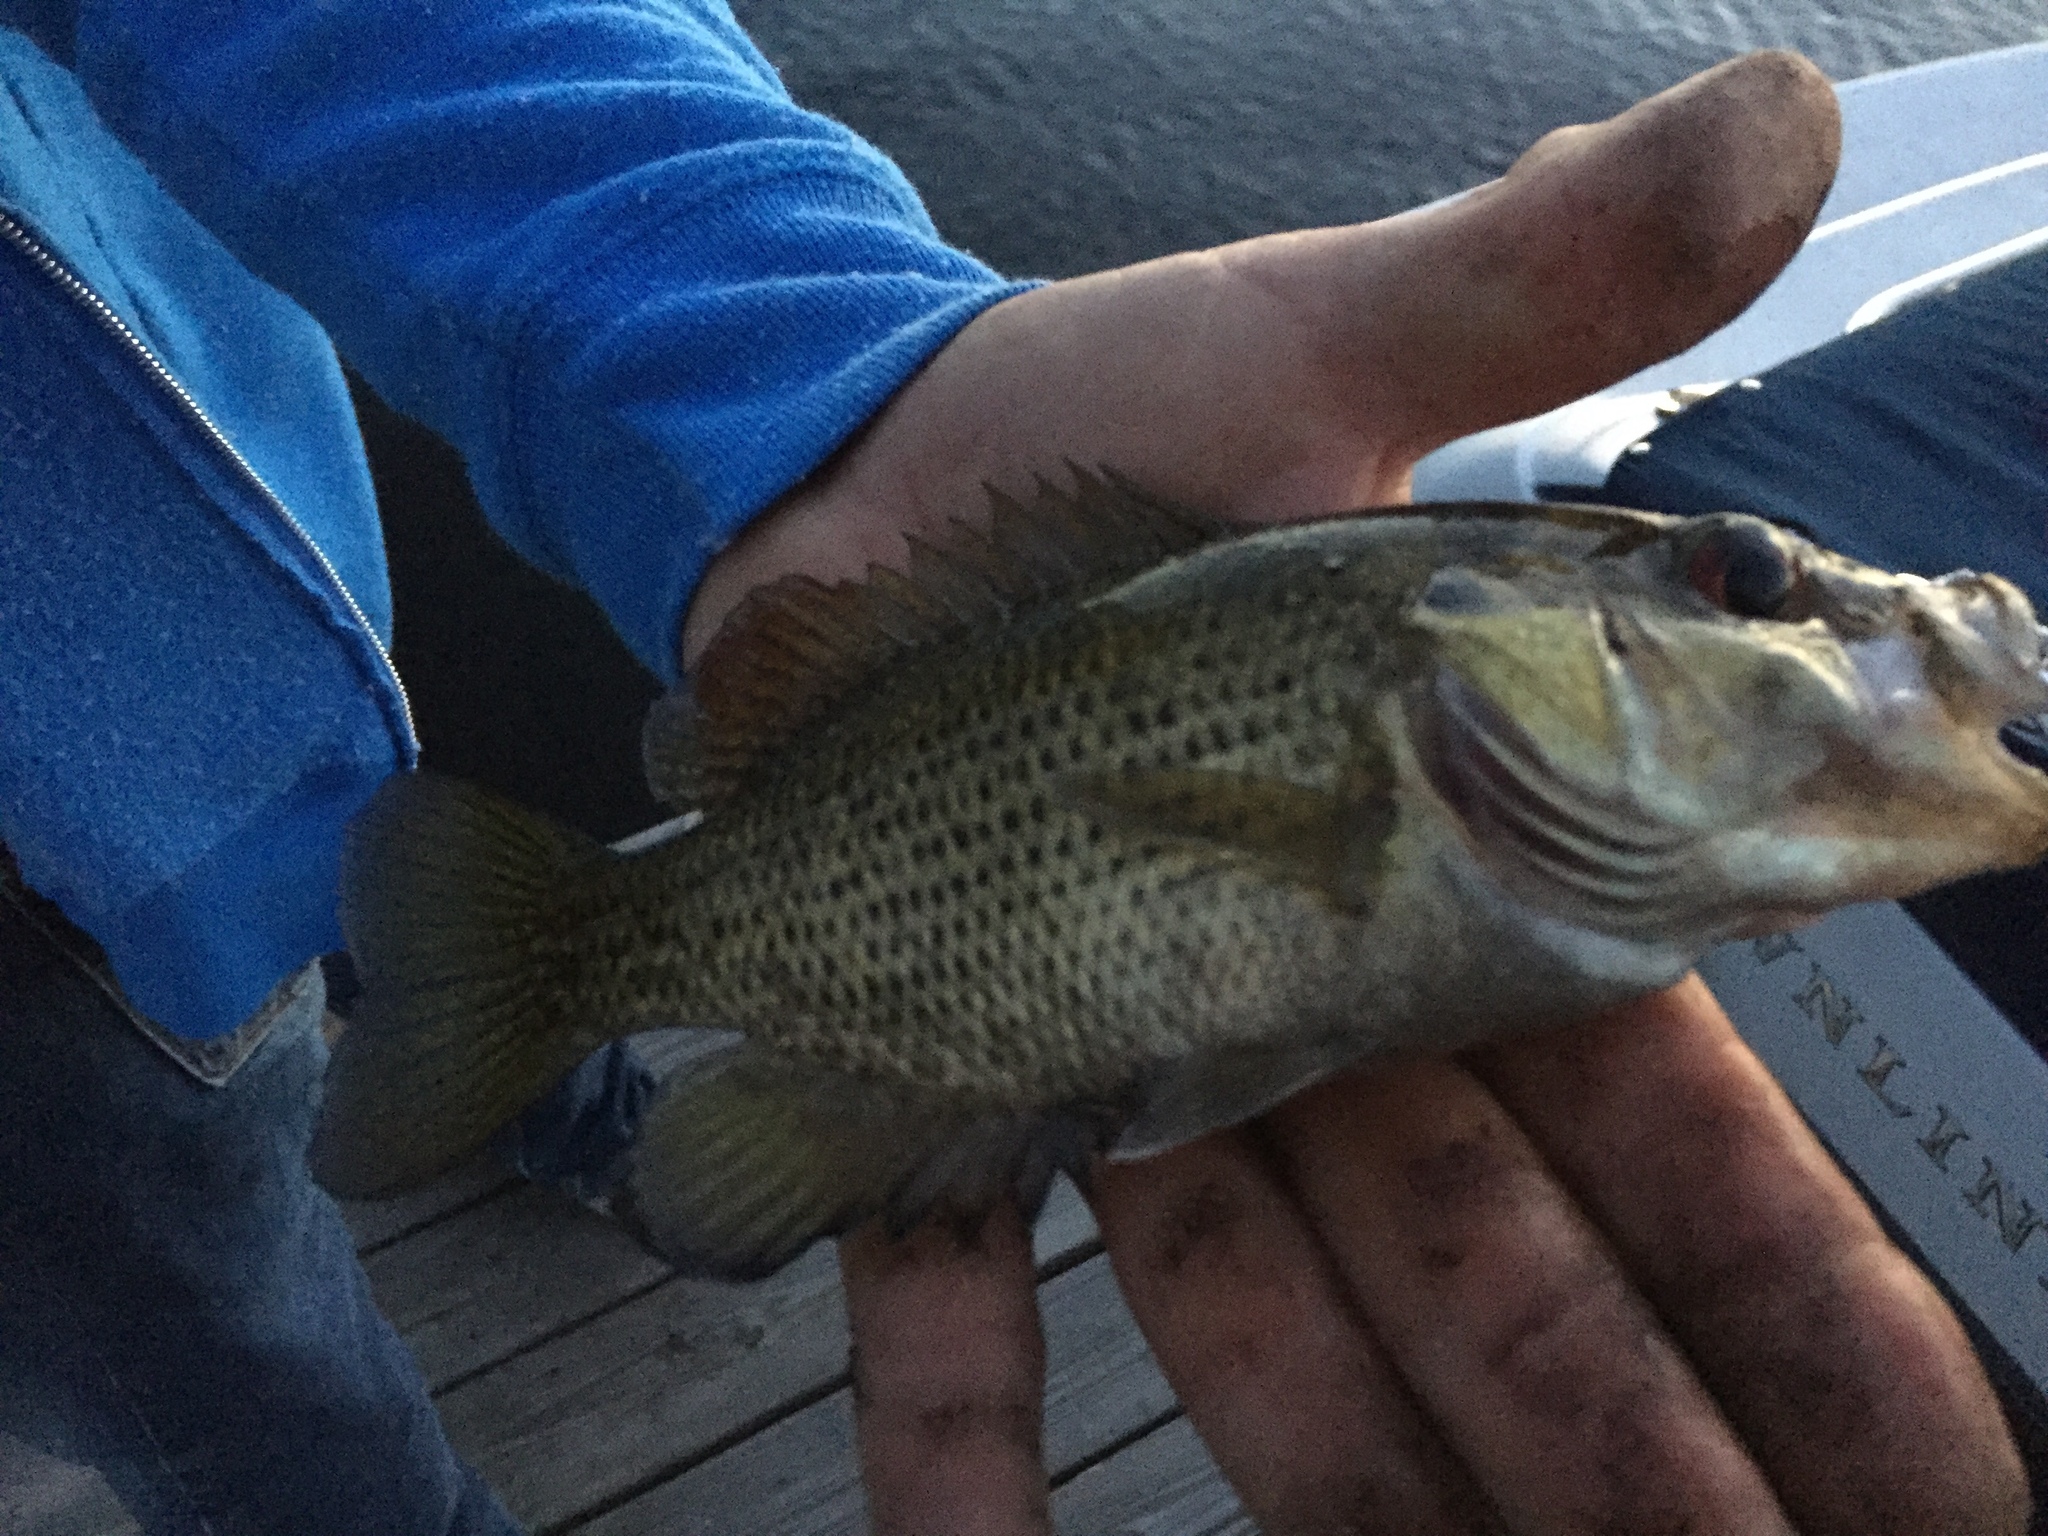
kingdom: Animalia
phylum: Chordata
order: Perciformes
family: Centrarchidae
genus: Ambloplites
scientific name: Ambloplites rupestris
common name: Rock bass
